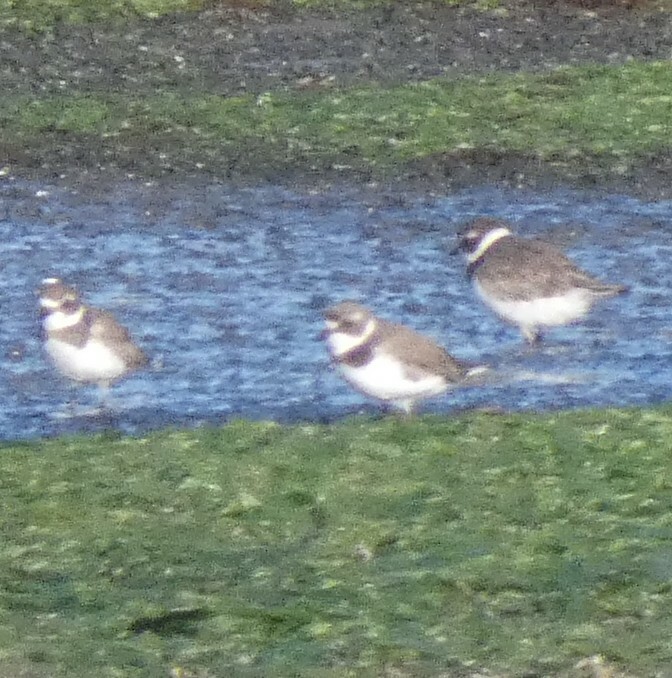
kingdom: Animalia
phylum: Chordata
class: Aves
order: Charadriiformes
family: Charadriidae
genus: Charadrius
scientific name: Charadrius semipalmatus
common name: Semipalmated plover
